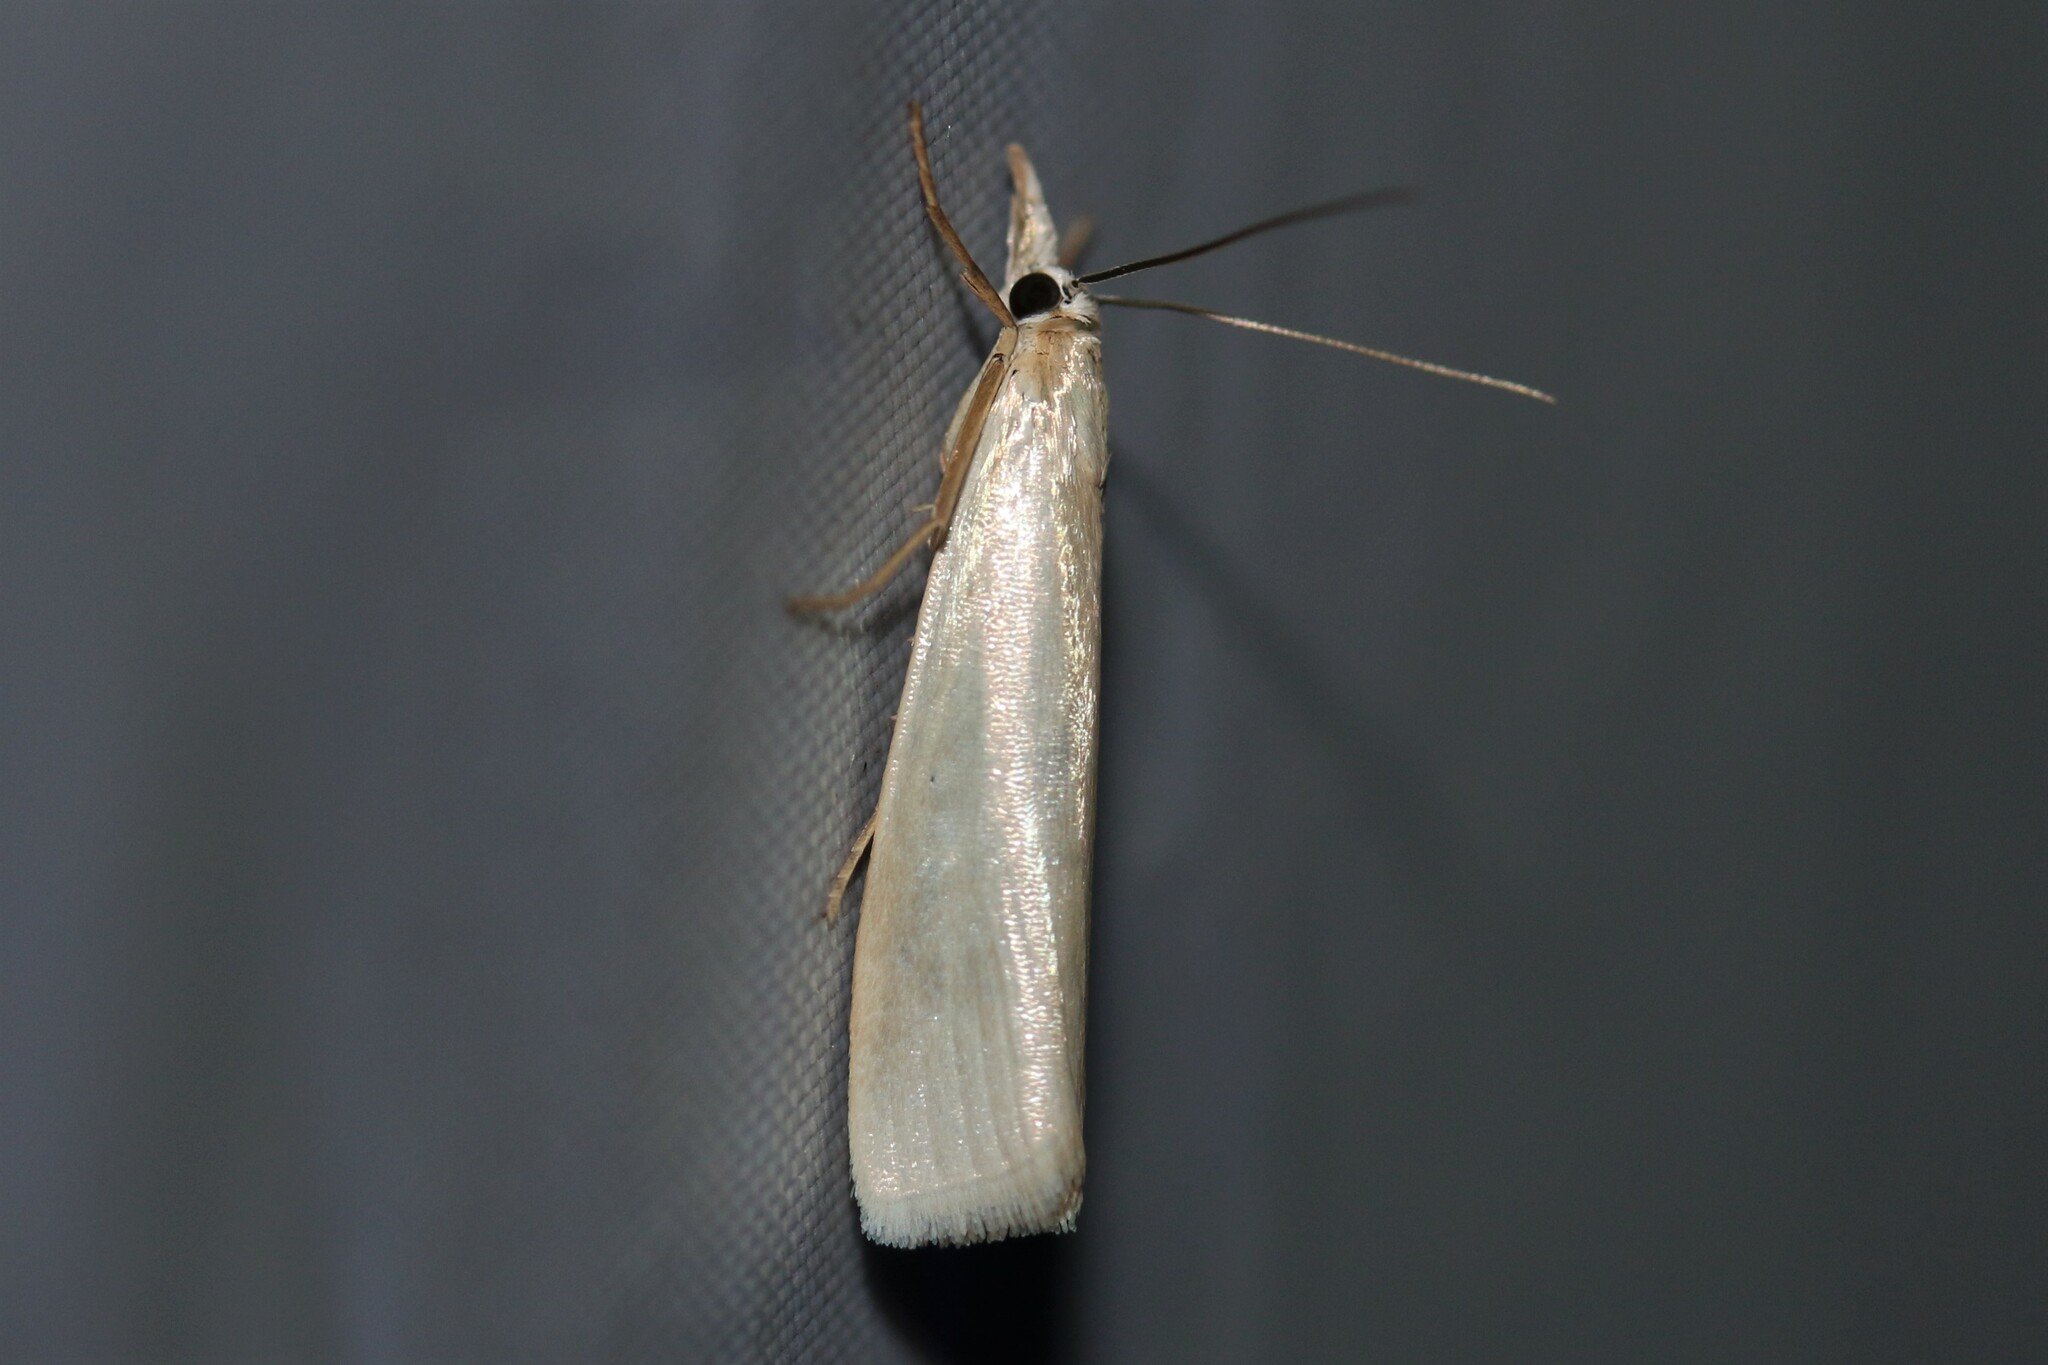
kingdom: Animalia
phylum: Arthropoda
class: Insecta
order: Lepidoptera
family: Crambidae
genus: Crambus
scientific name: Crambus perlellus
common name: Yellow satin veneer
